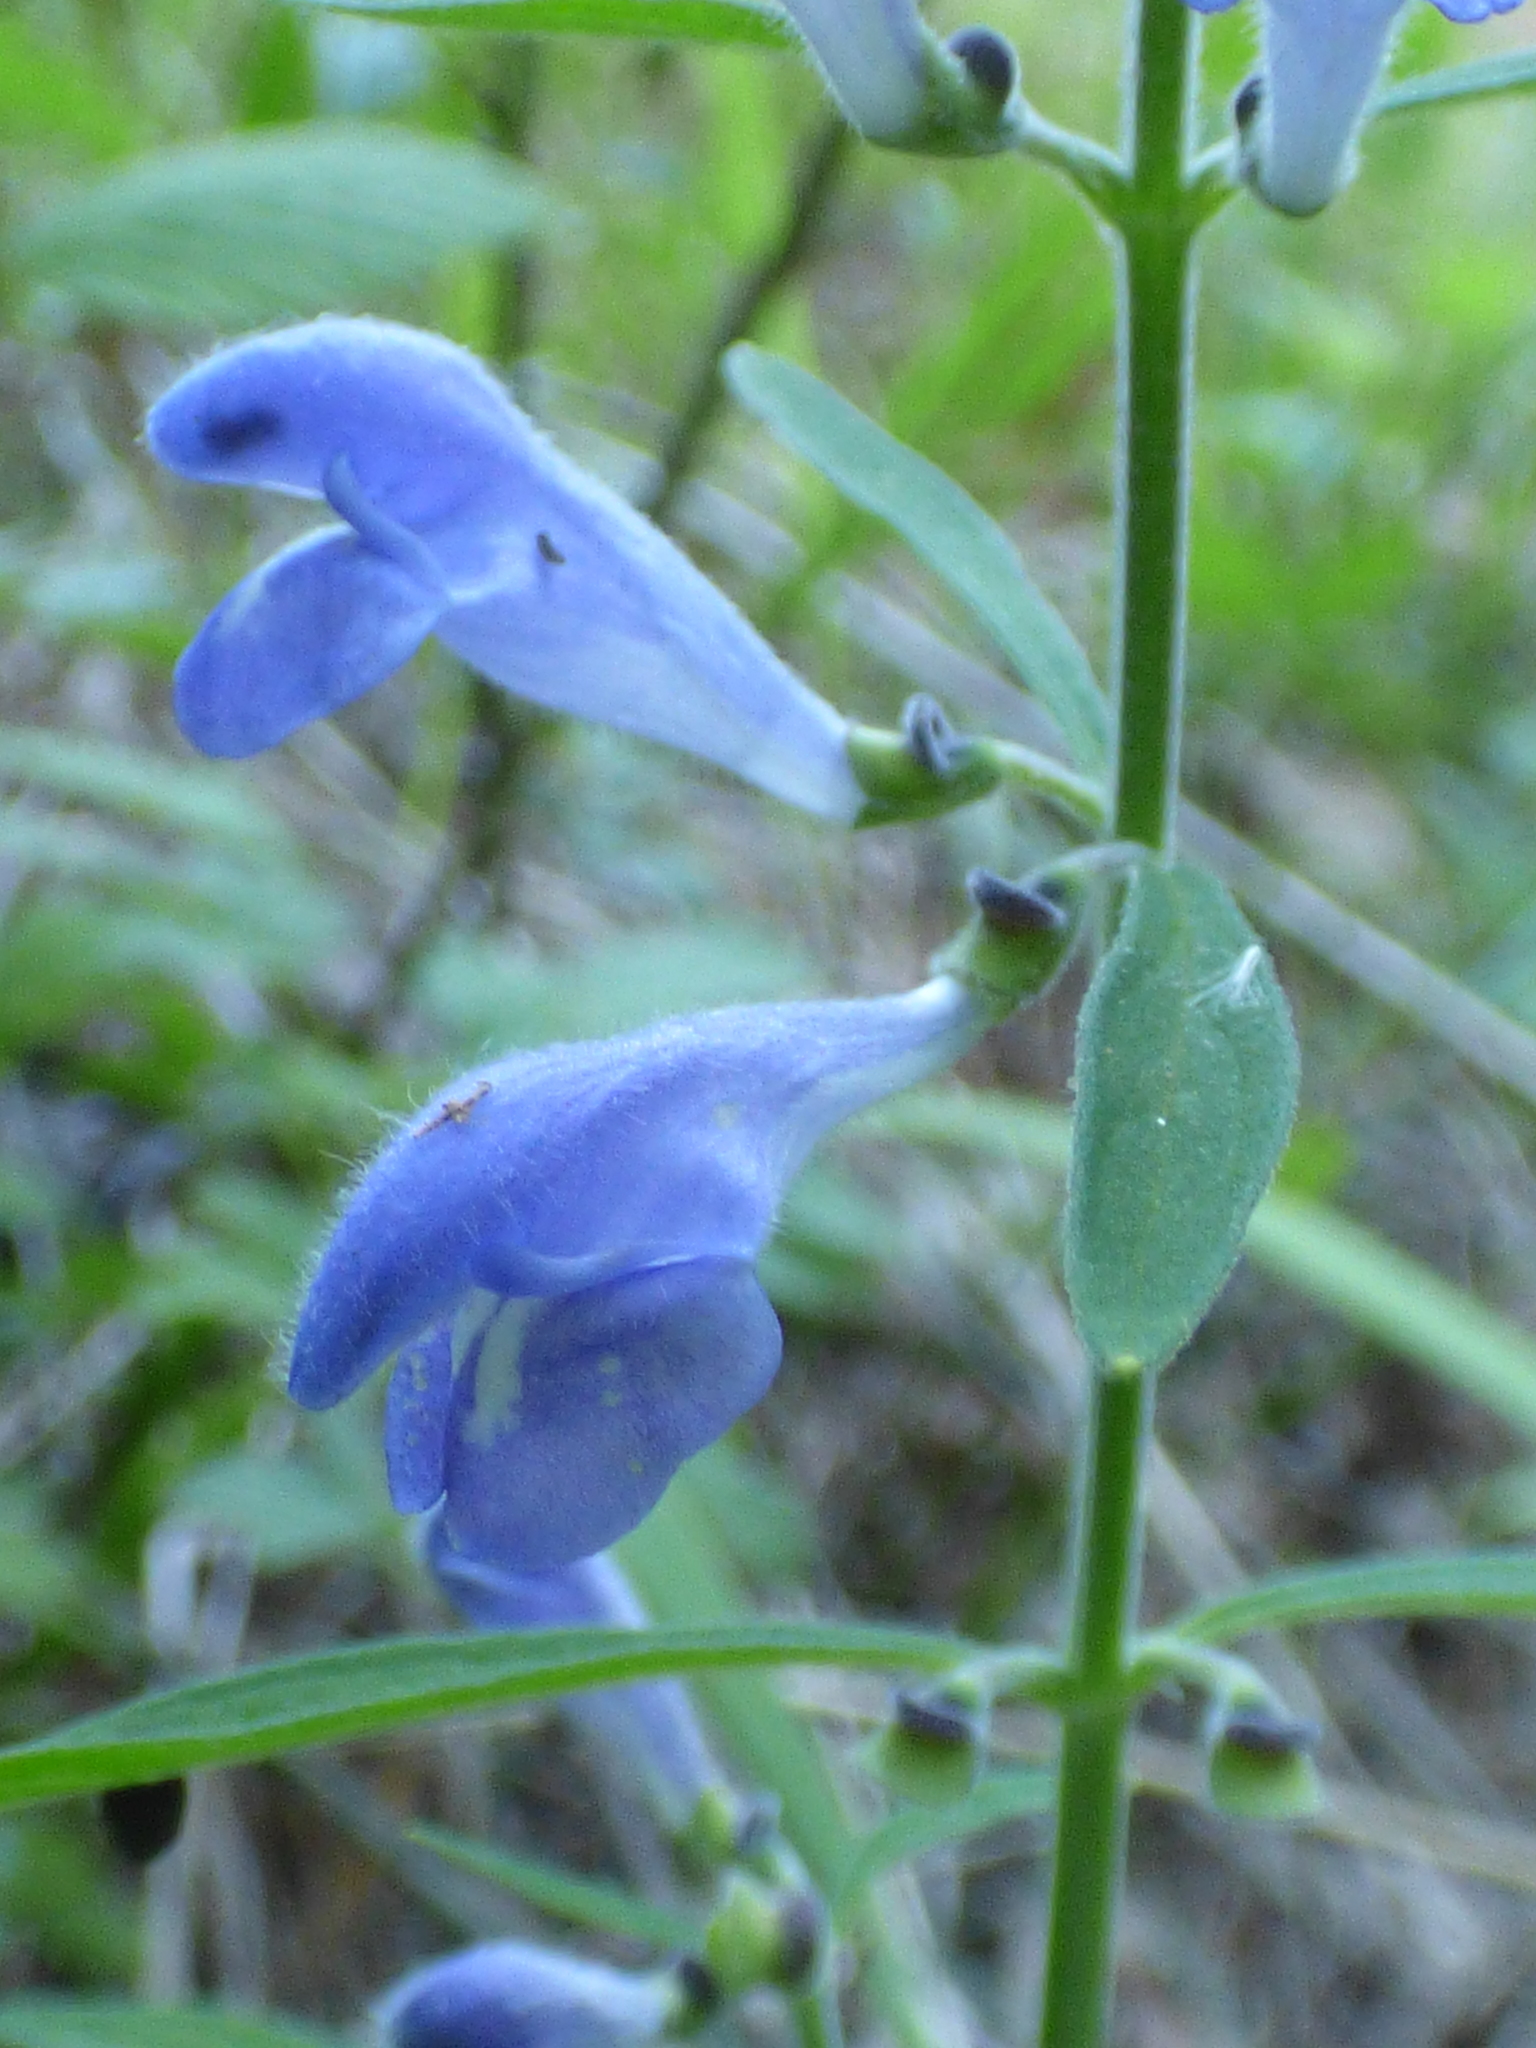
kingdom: Plantae
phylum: Tracheophyta
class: Magnoliopsida
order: Lamiales
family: Lamiaceae
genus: Scutellaria
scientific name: Scutellaria integrifolia
